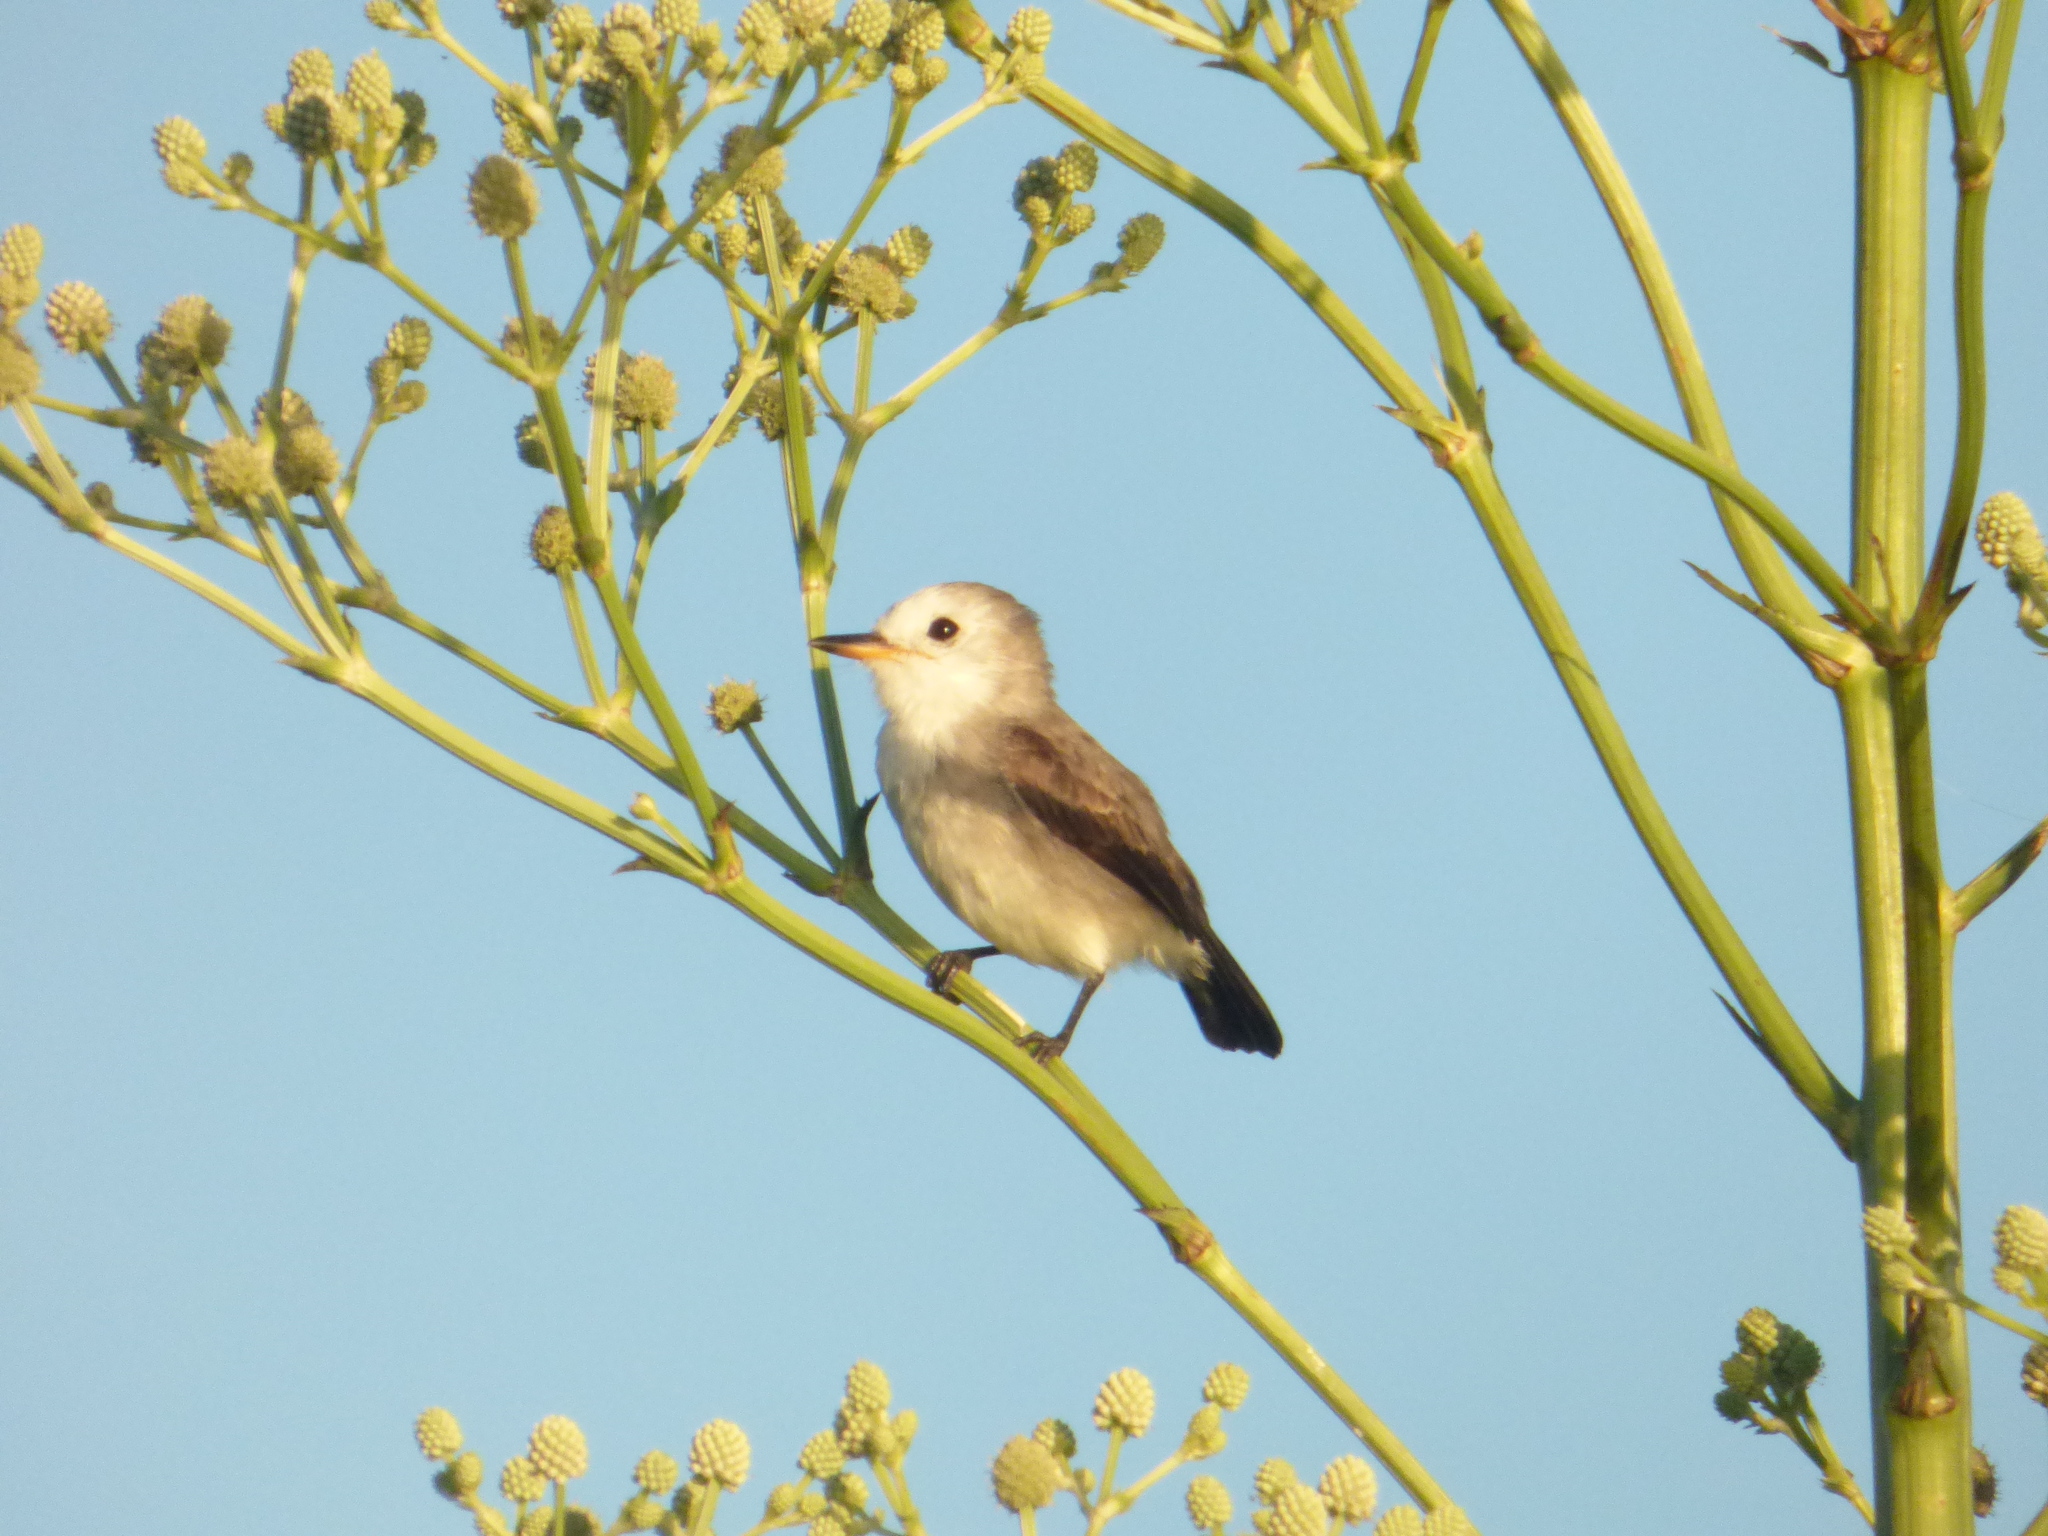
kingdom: Animalia
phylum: Chordata
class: Aves
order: Passeriformes
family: Tyrannidae
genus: Arundinicola
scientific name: Arundinicola leucocephala
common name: White-headed marsh tyrant
